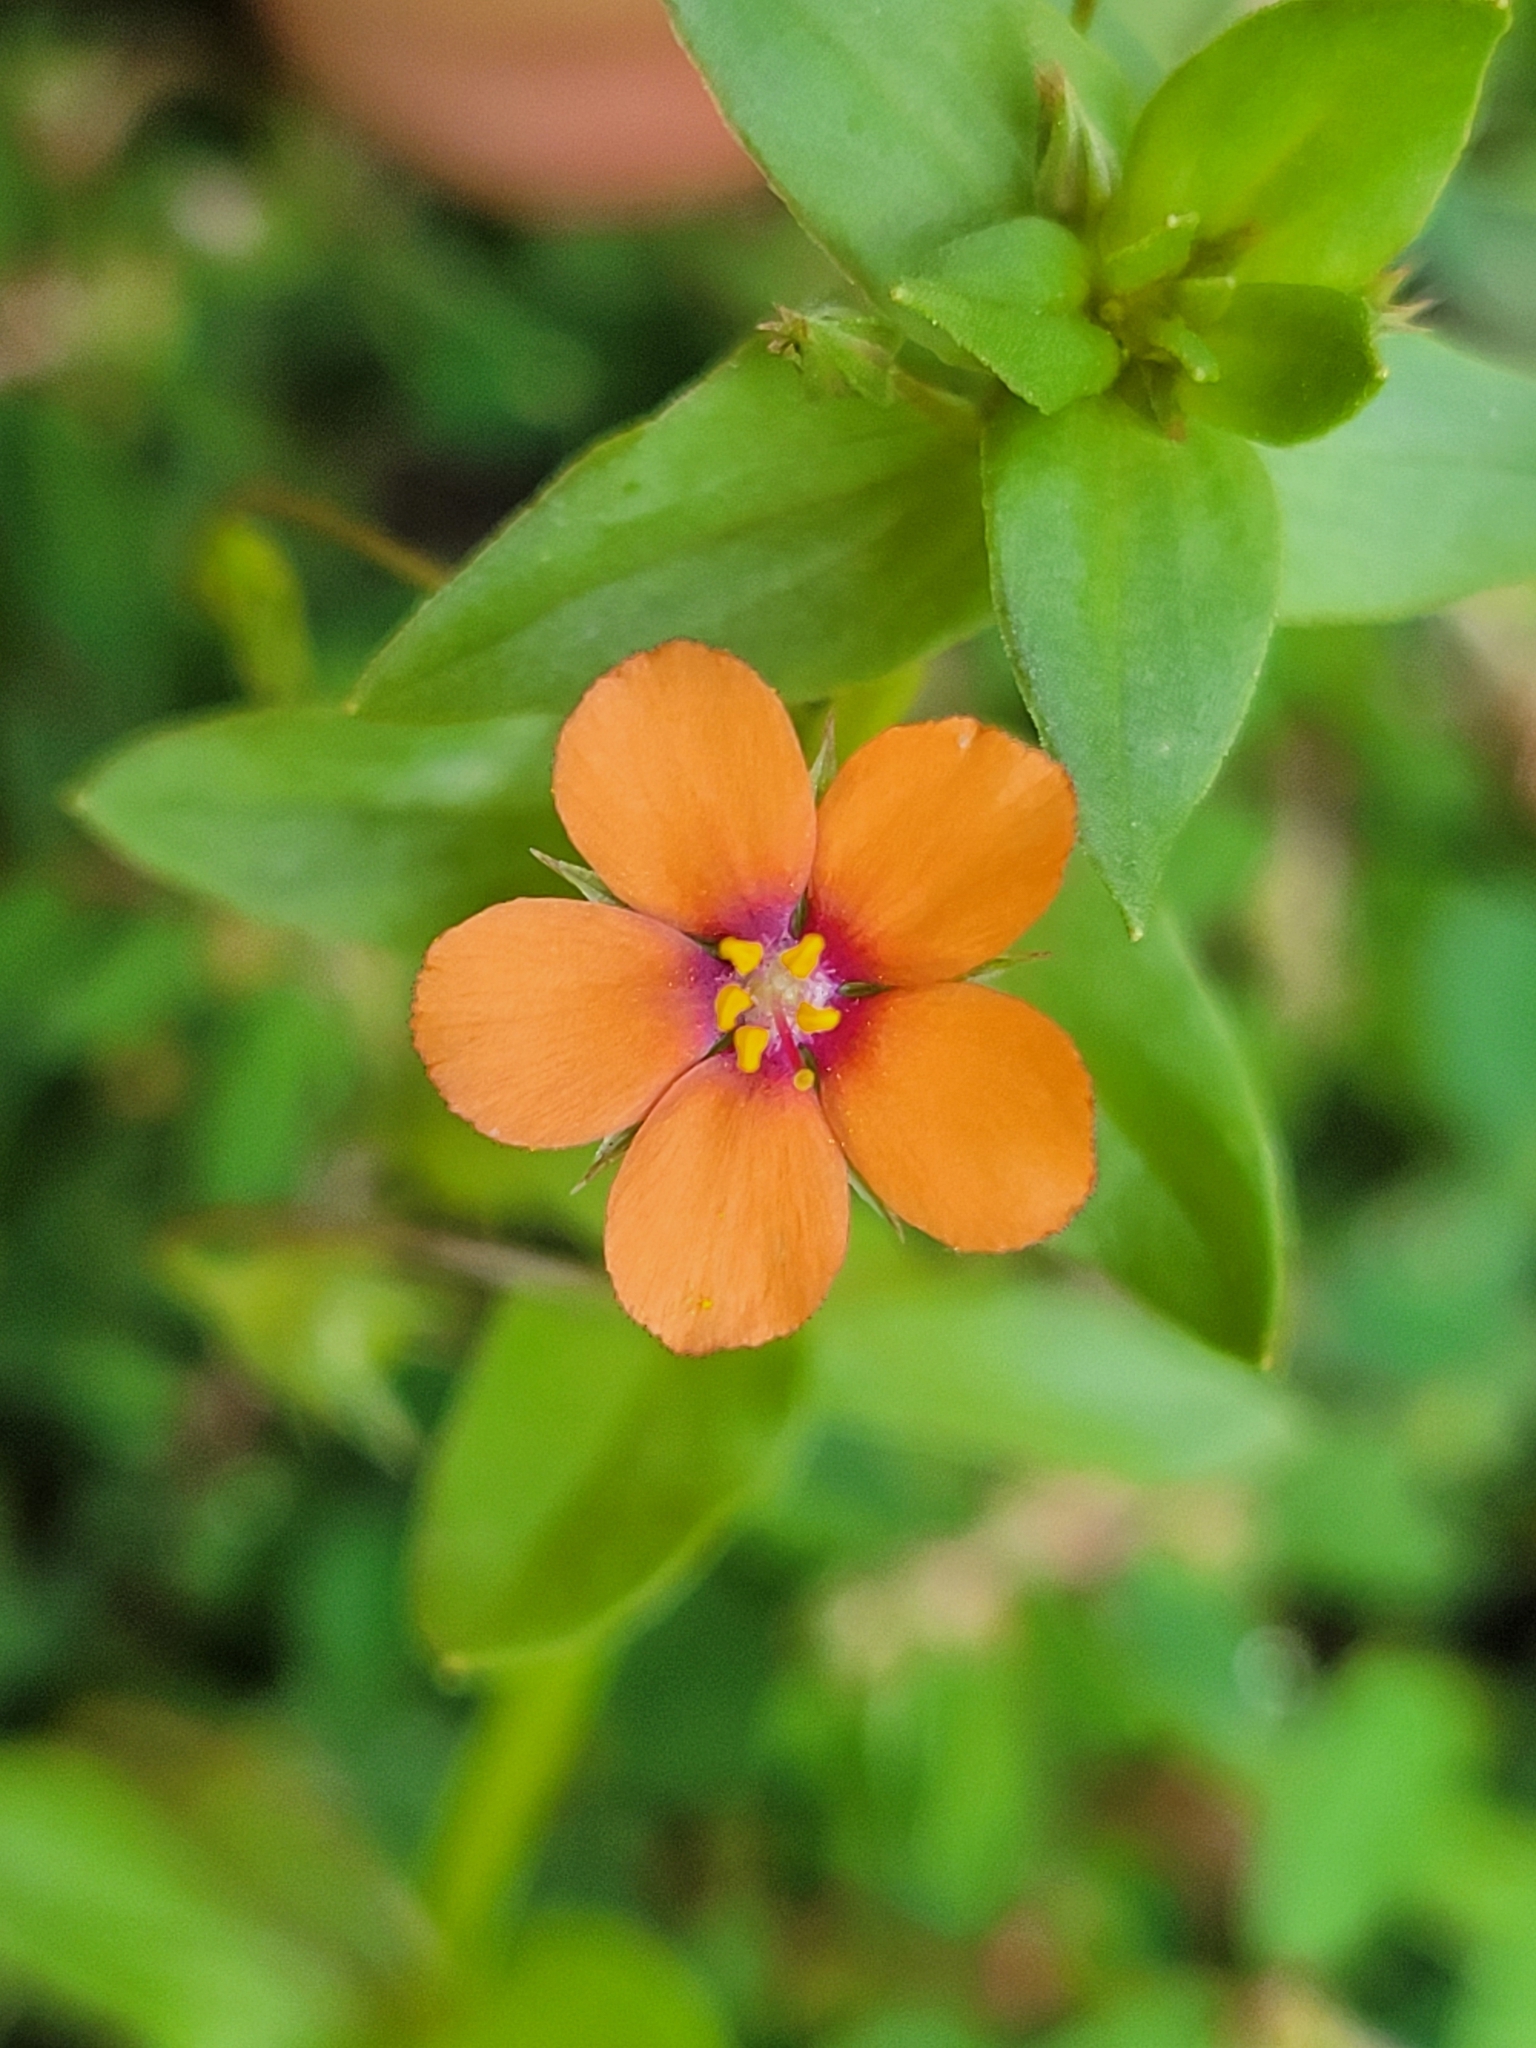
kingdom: Plantae
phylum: Tracheophyta
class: Magnoliopsida
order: Ericales
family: Primulaceae
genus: Lysimachia
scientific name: Lysimachia arvensis
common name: Scarlet pimpernel
